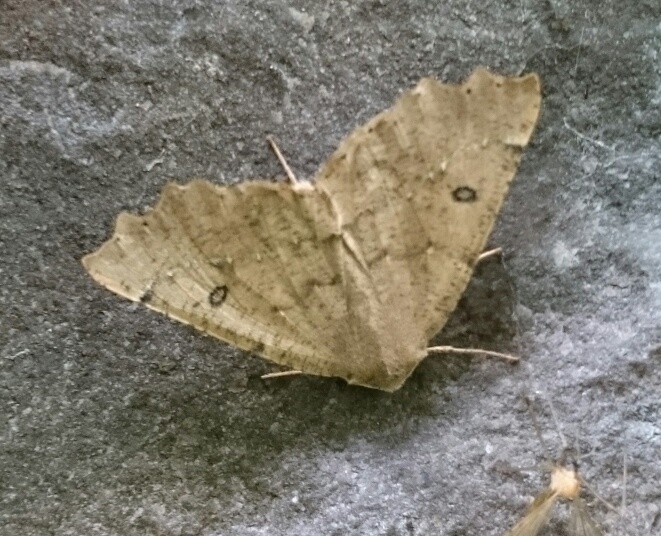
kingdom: Animalia
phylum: Arthropoda
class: Insecta
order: Lepidoptera
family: Geometridae
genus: Odontopera
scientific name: Odontopera bidentata
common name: Scalloped hazel
